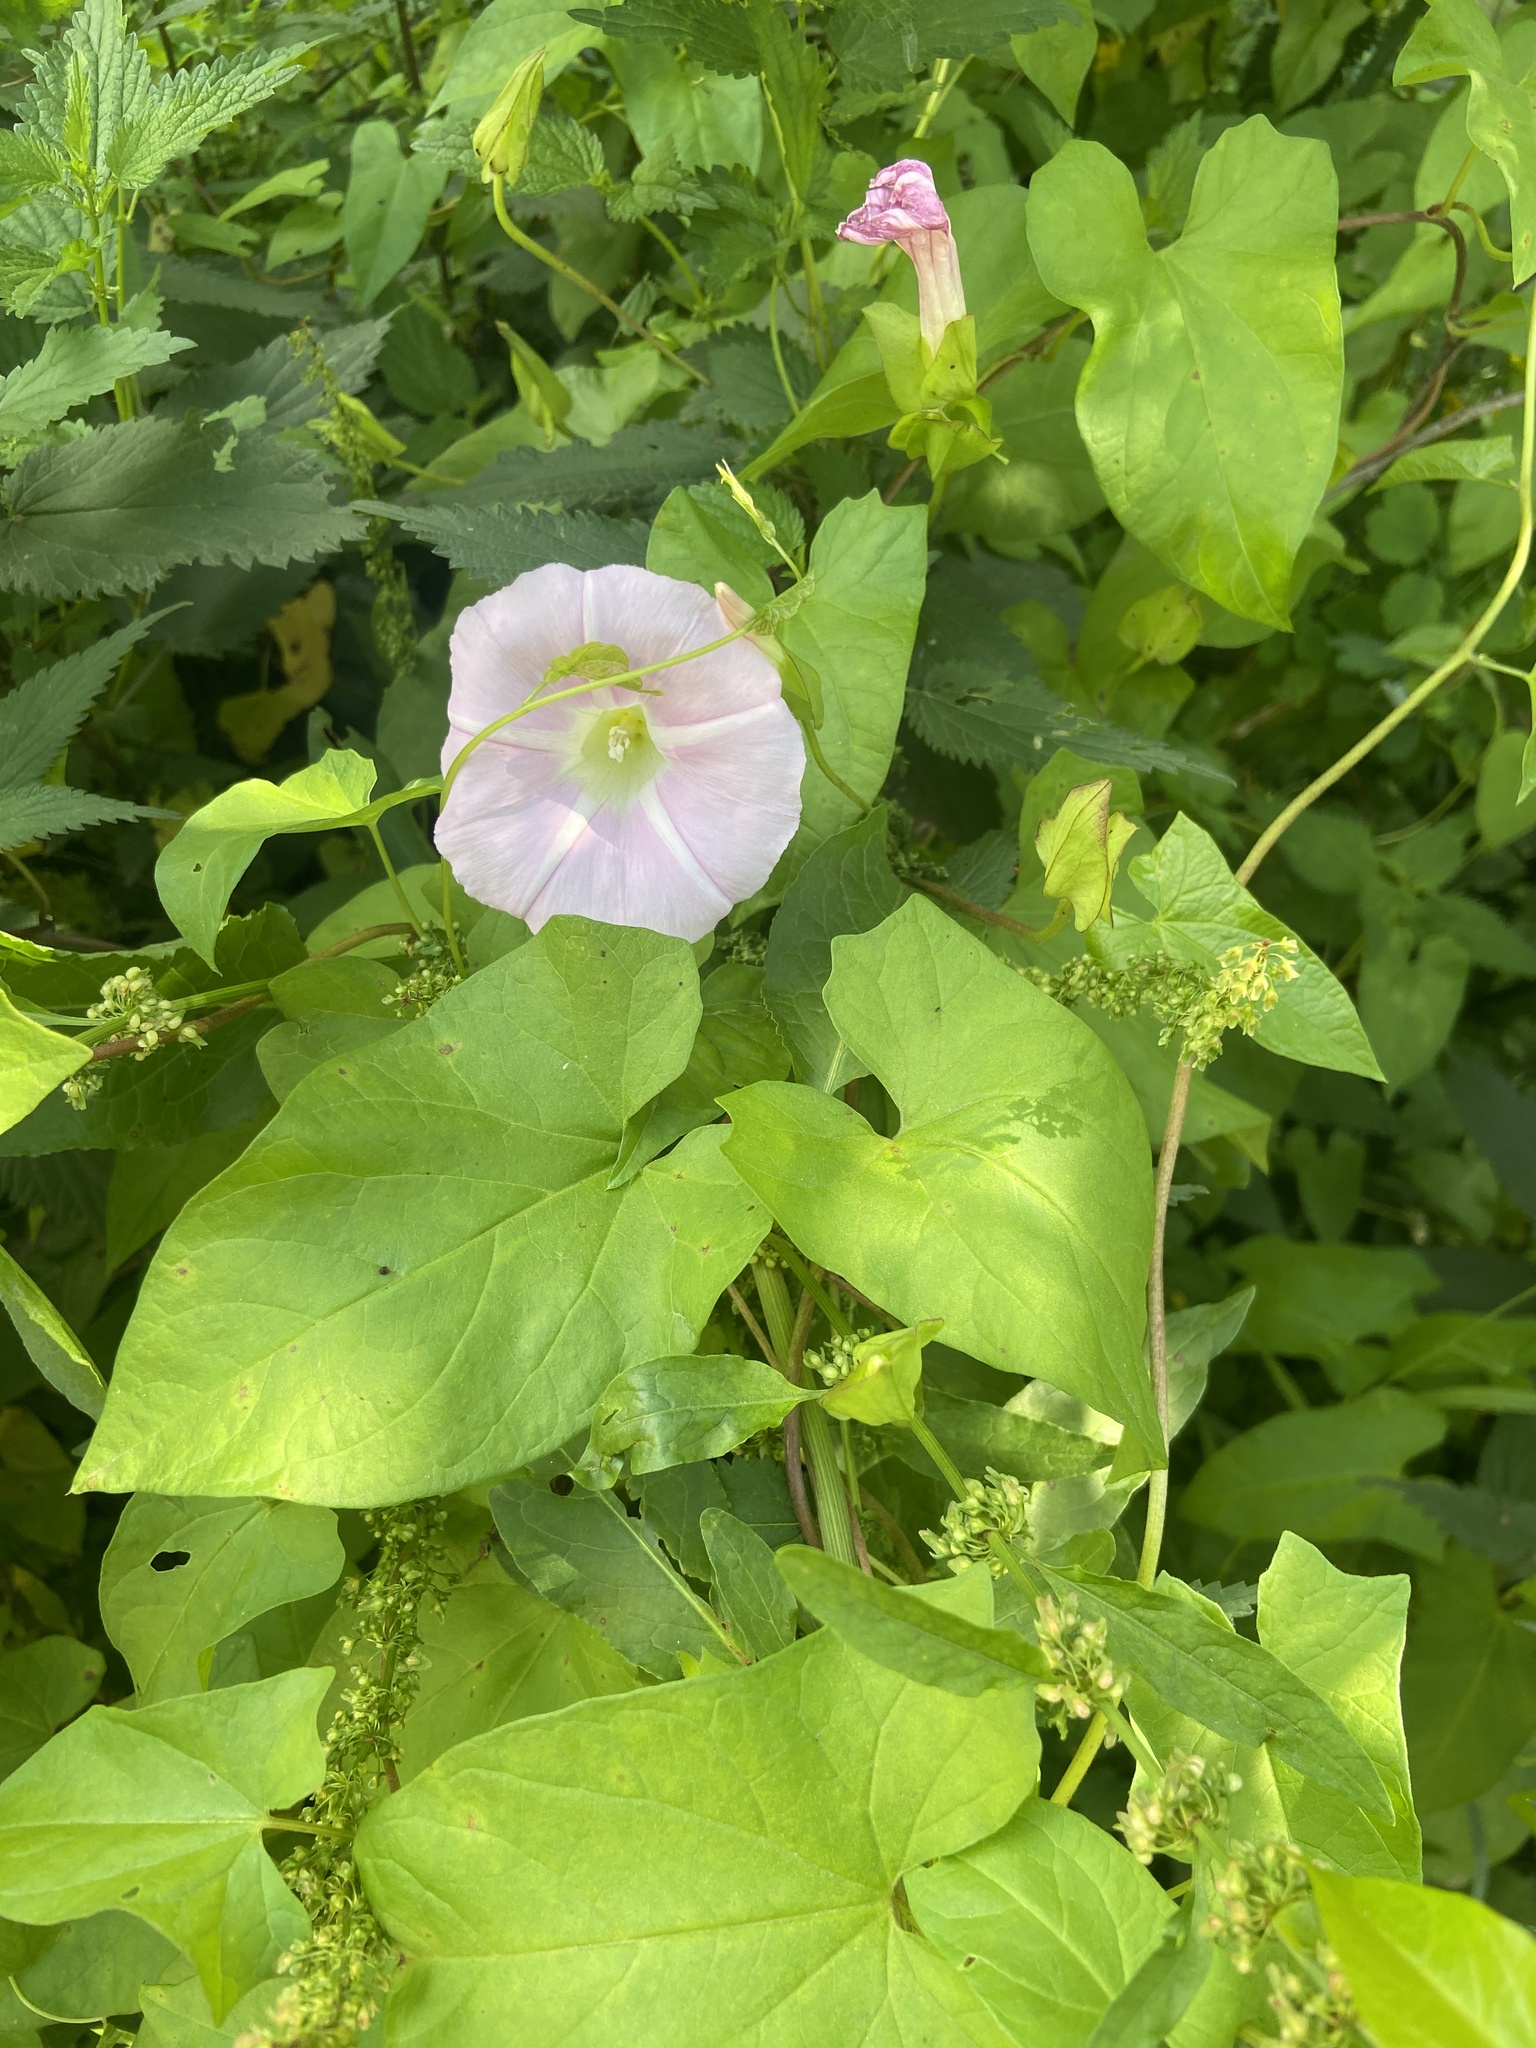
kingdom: Plantae
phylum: Tracheophyta
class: Magnoliopsida
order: Solanales
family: Convolvulaceae
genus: Calystegia
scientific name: Calystegia sepium
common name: Hedge bindweed
